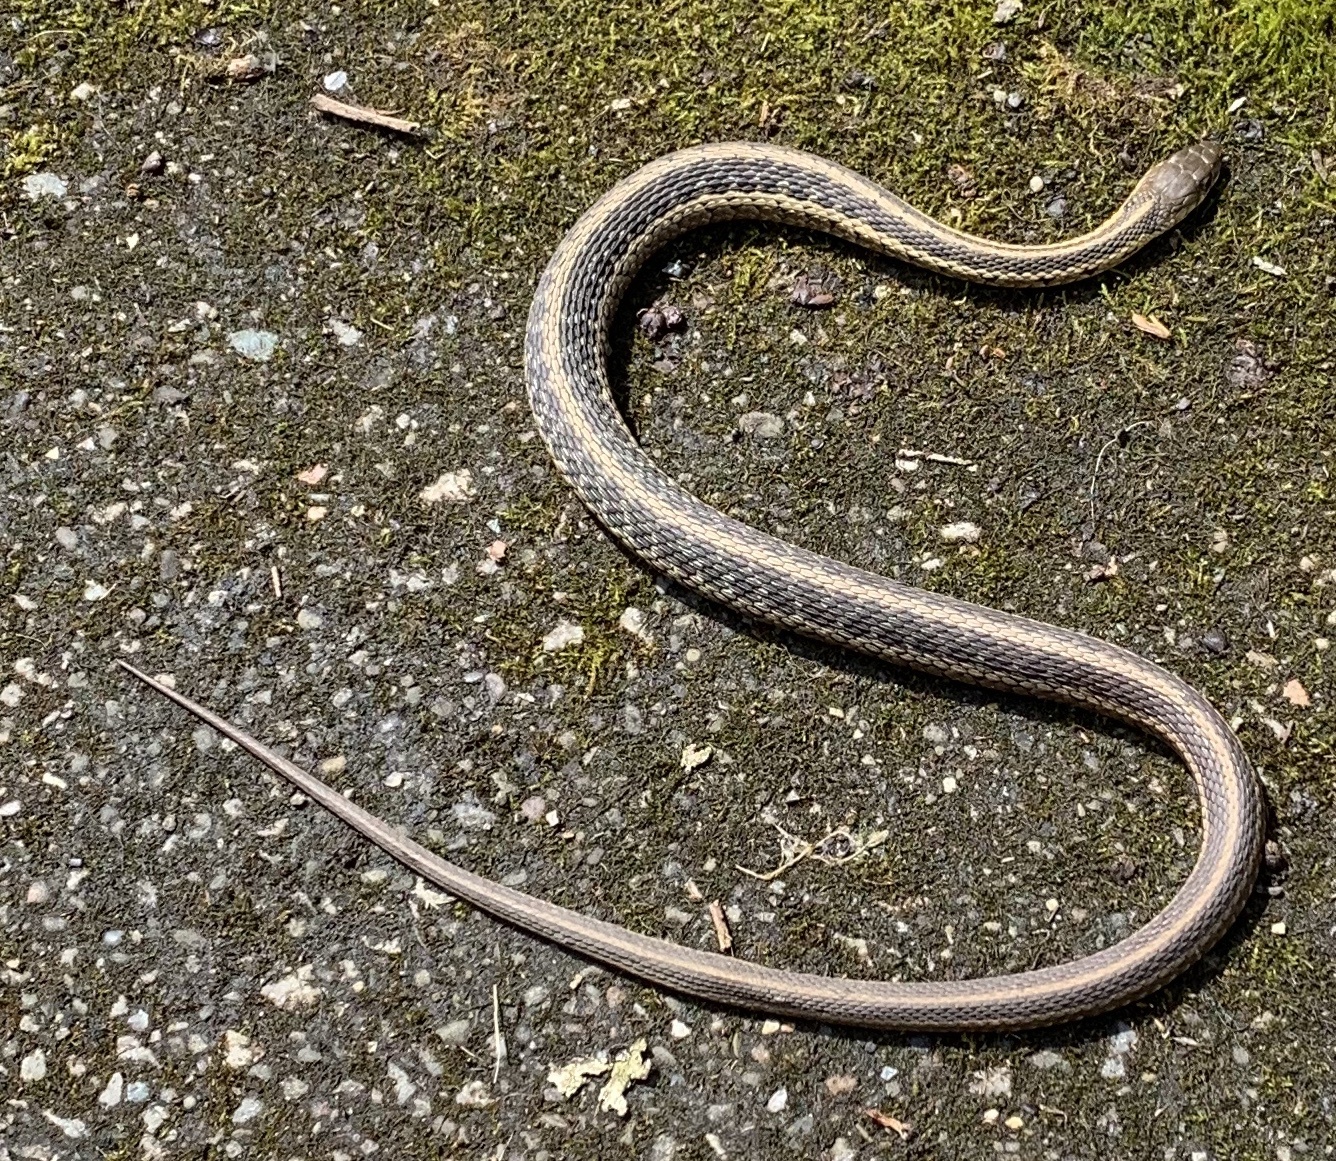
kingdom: Animalia
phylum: Chordata
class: Squamata
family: Colubridae
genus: Thamnophis
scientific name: Thamnophis sirtalis
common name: Common garter snake
